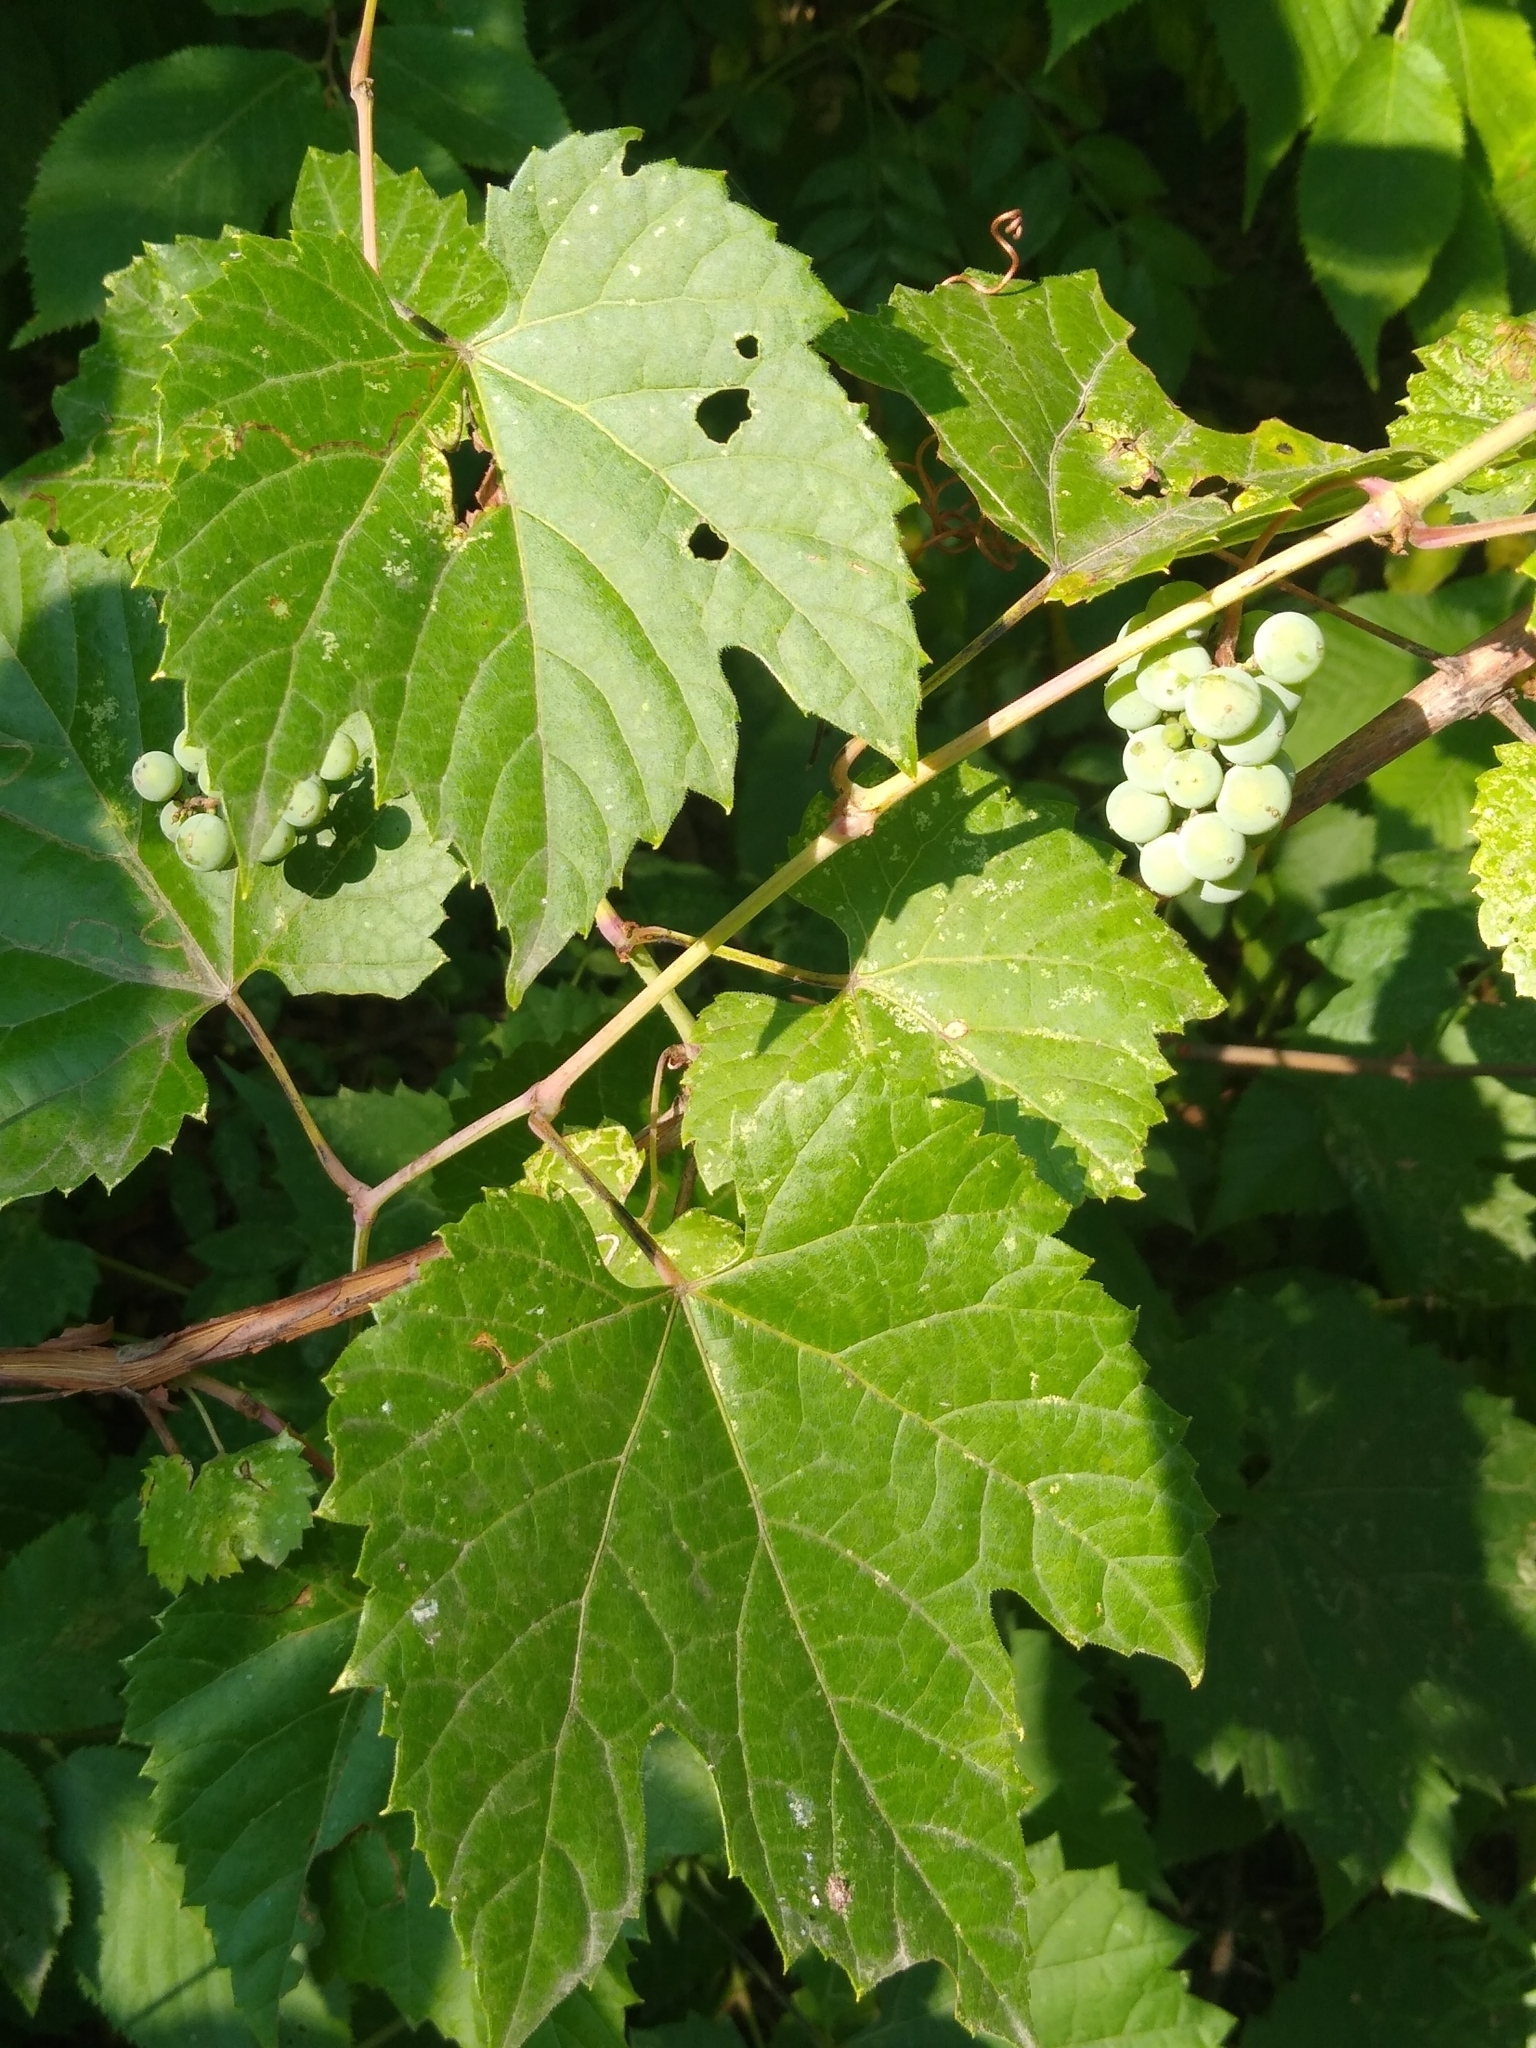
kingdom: Plantae
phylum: Tracheophyta
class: Magnoliopsida
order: Vitales
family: Vitaceae
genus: Vitis
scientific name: Vitis riparia
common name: Frost grape
